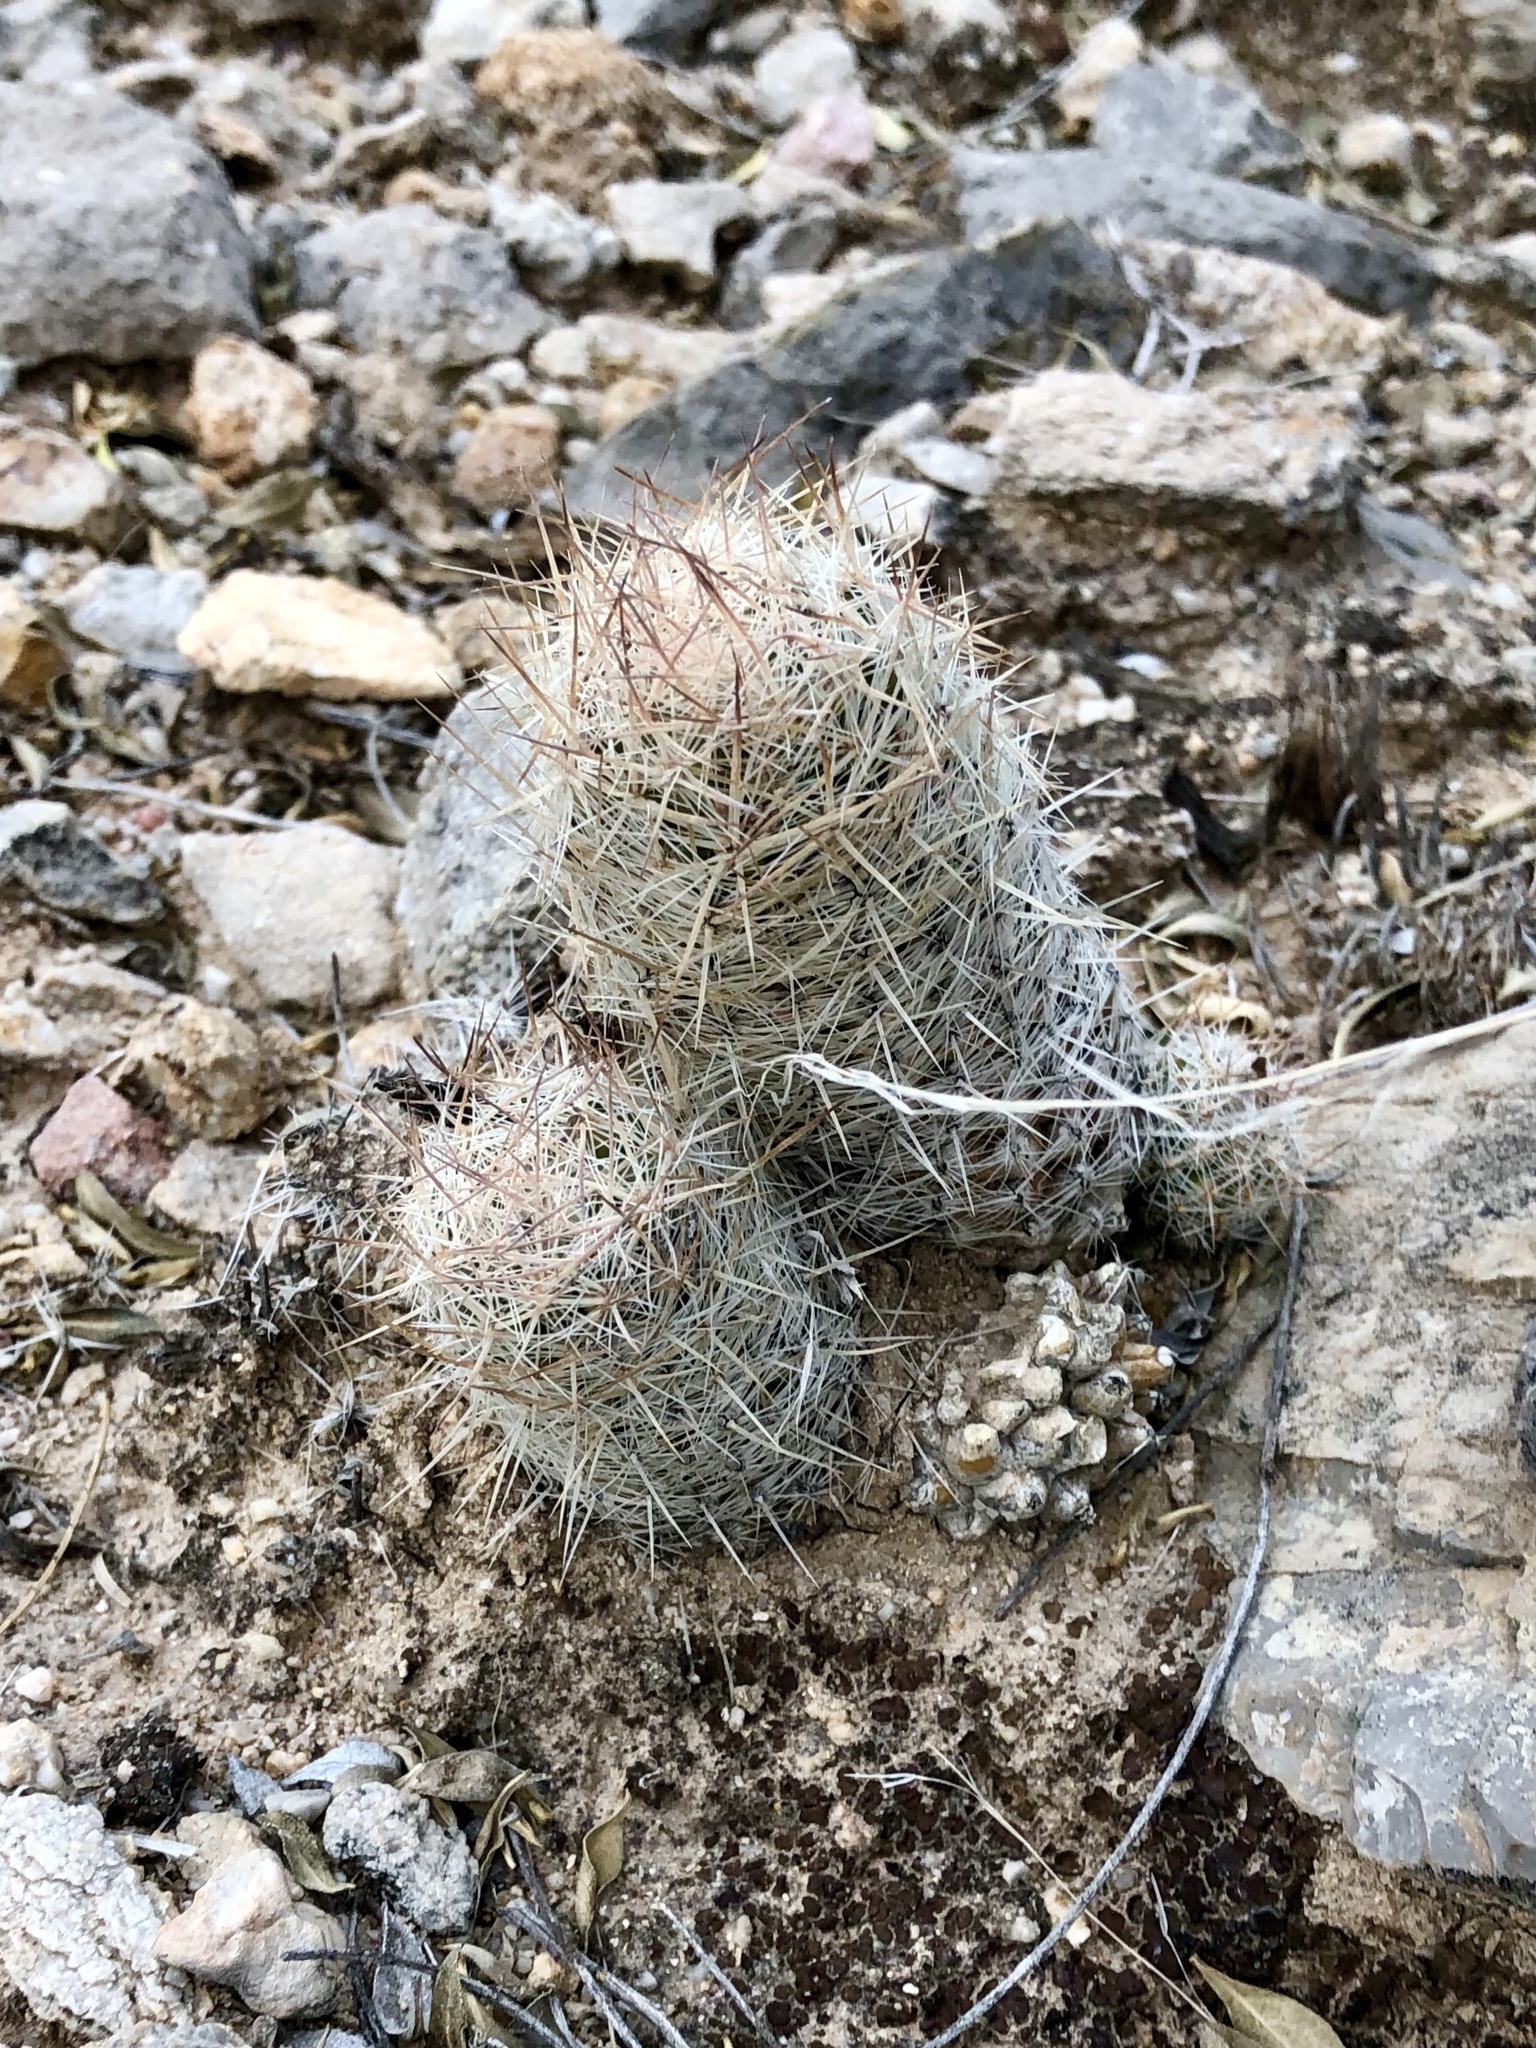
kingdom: Plantae
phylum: Tracheophyta
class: Magnoliopsida
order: Caryophyllales
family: Cactaceae
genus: Pelecyphora
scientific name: Pelecyphora tuberculosa
